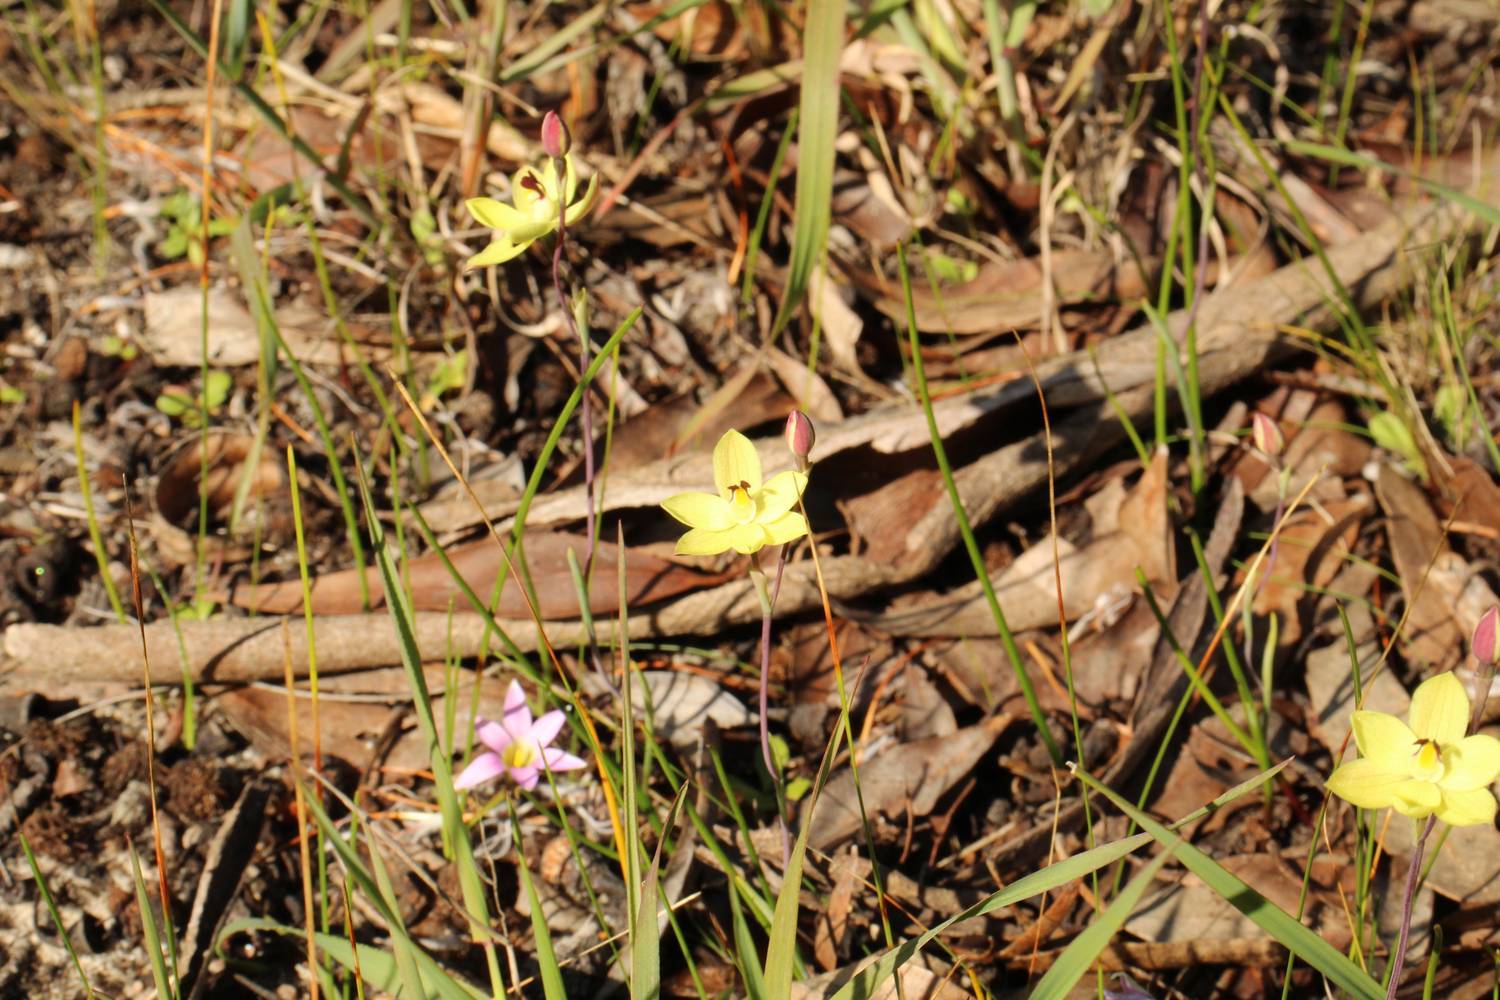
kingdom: Plantae
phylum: Tracheophyta
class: Liliopsida
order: Asparagales
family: Orchidaceae
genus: Thelymitra
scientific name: Thelymitra antennifera
